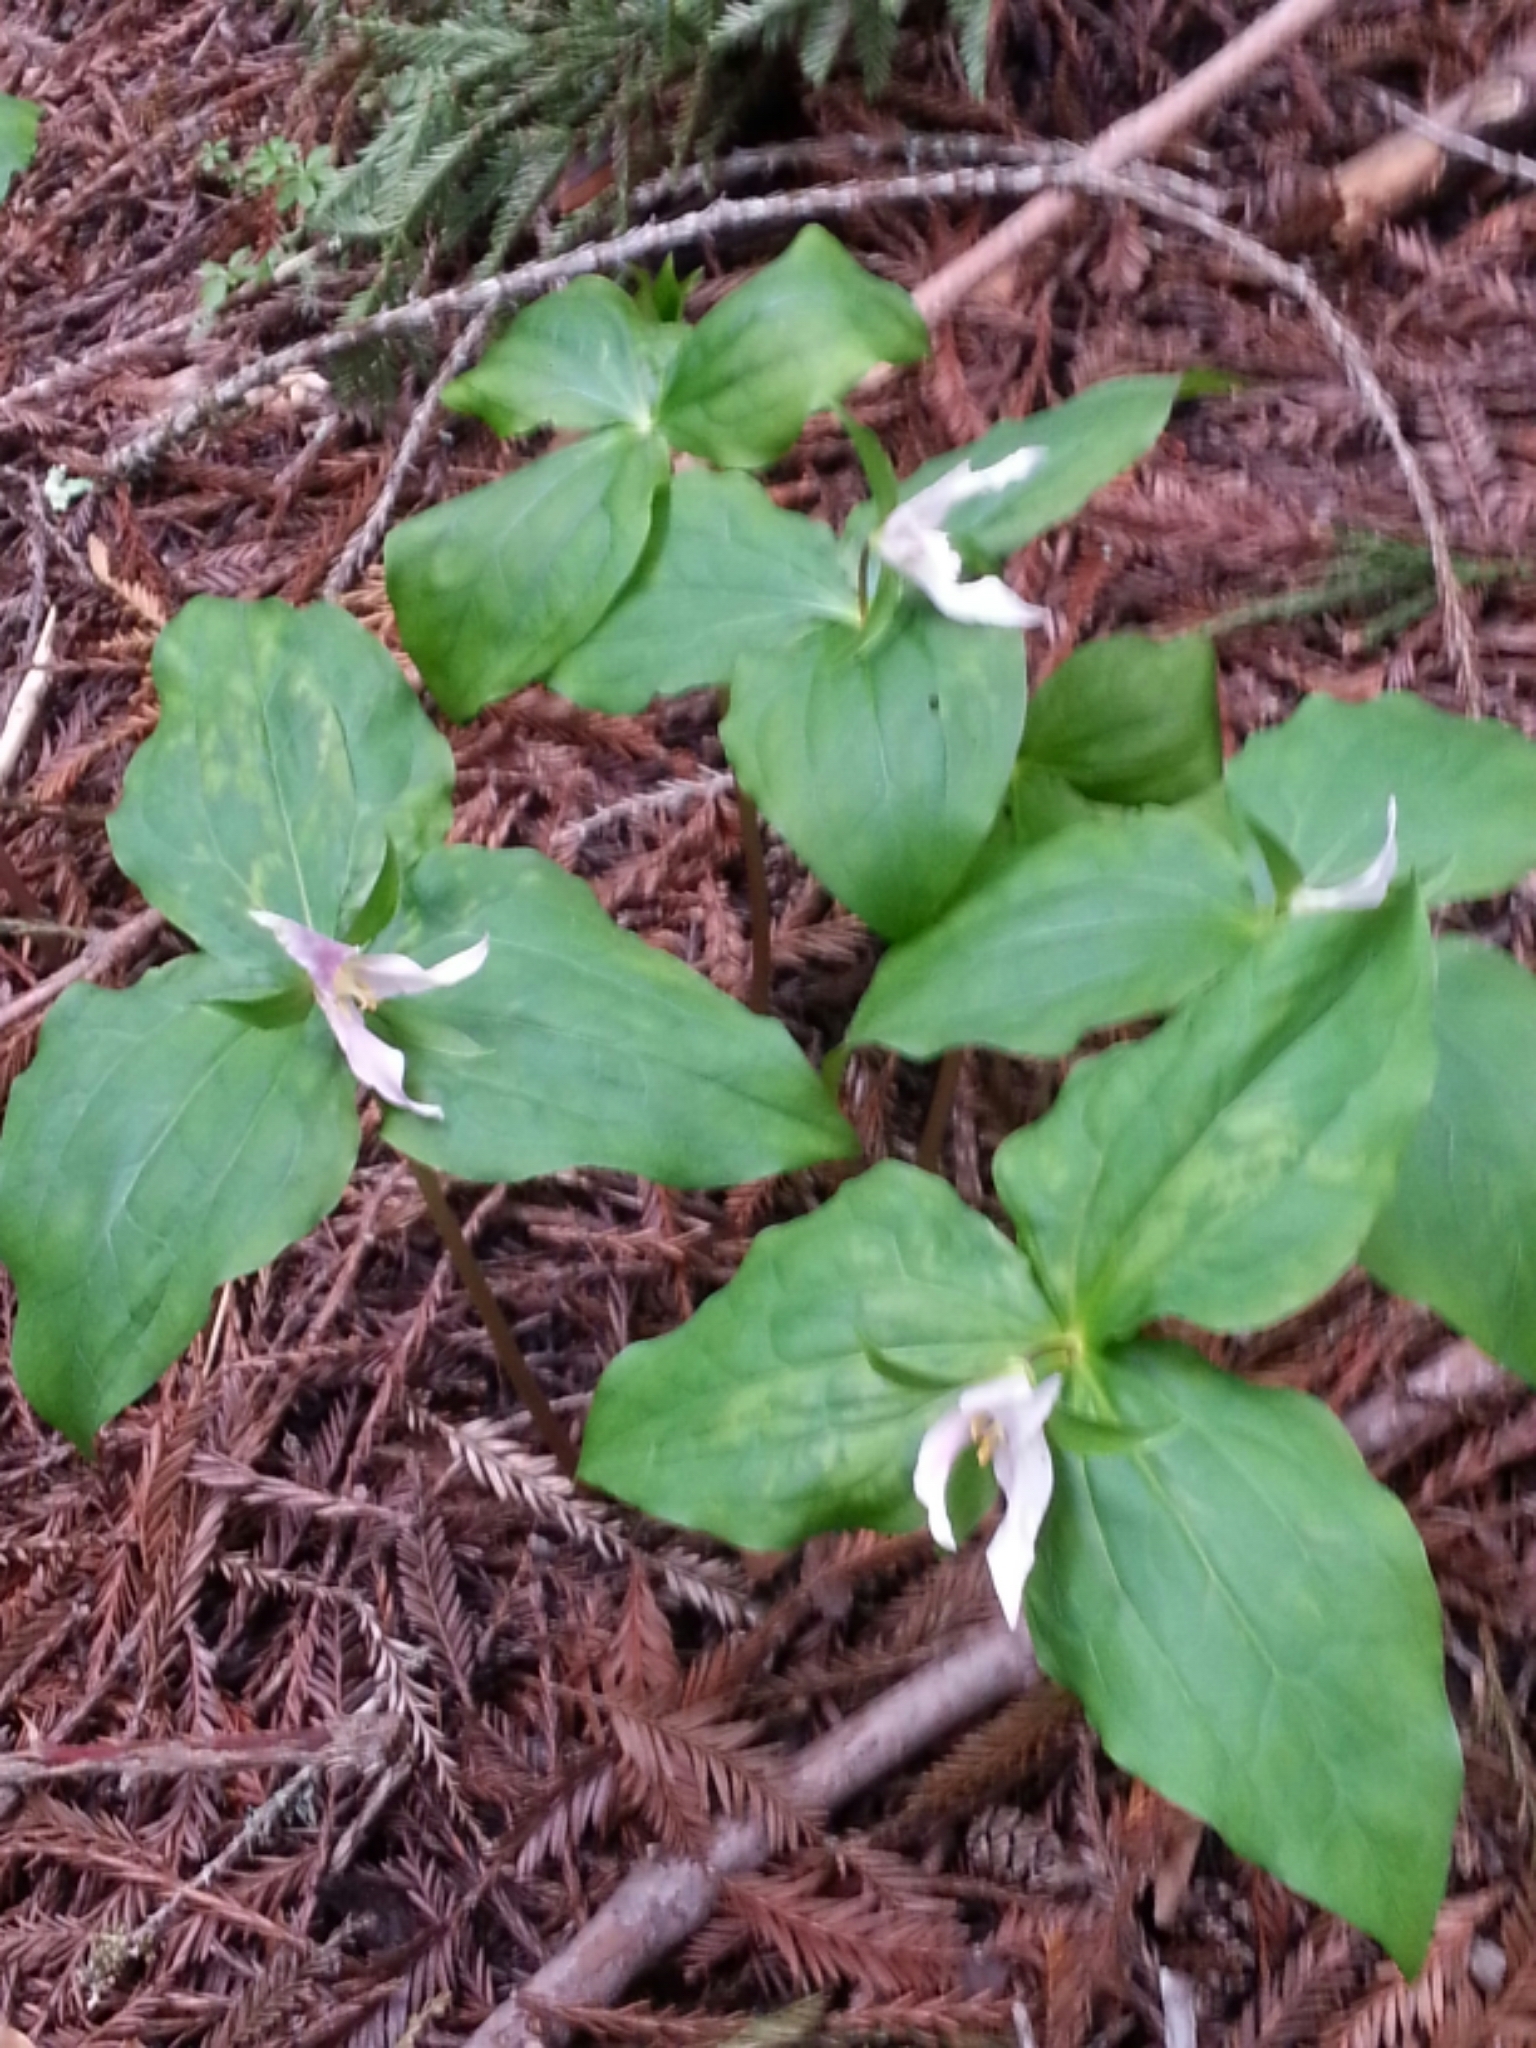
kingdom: Plantae
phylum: Tracheophyta
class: Liliopsida
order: Liliales
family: Melanthiaceae
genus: Trillium
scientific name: Trillium ovatum
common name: Pacific trillium
